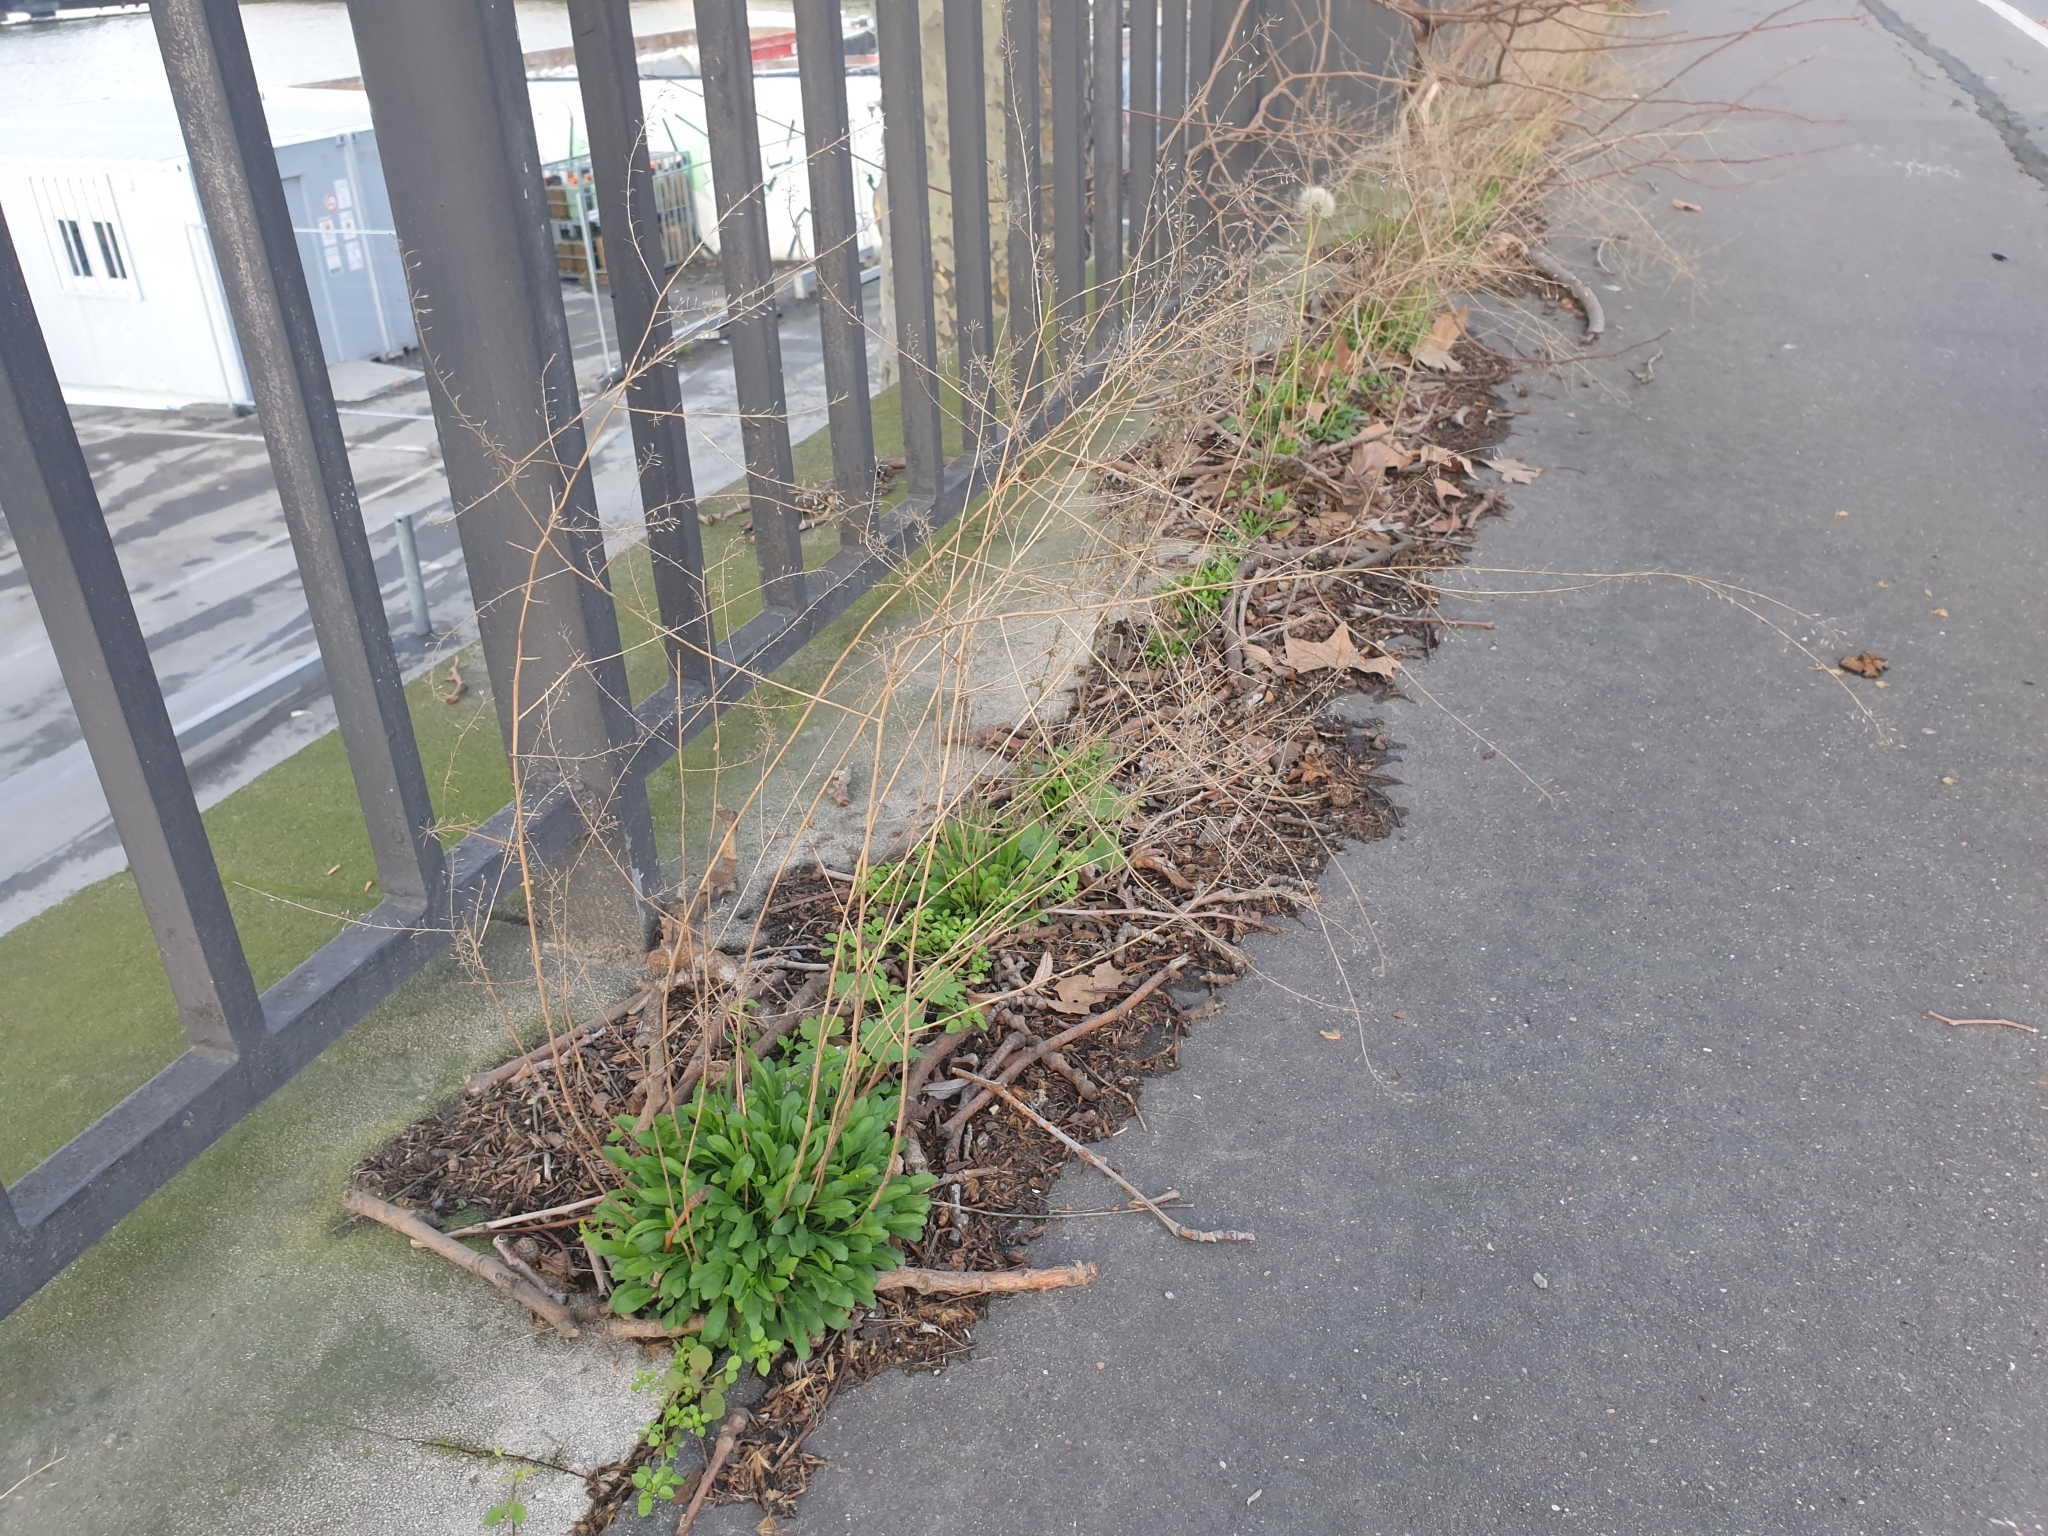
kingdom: Plantae
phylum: Tracheophyta
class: Magnoliopsida
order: Brassicales
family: Brassicaceae
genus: Lepidium
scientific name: Lepidium graminifolium
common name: Tall pepperwort
